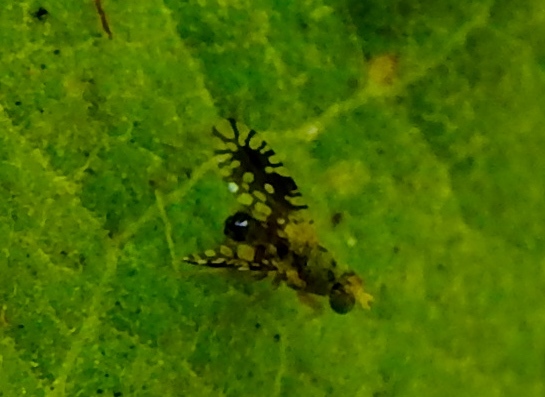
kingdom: Animalia
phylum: Arthropoda
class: Insecta
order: Diptera
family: Tephritidae
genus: Euaresta
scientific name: Euaresta bellula
